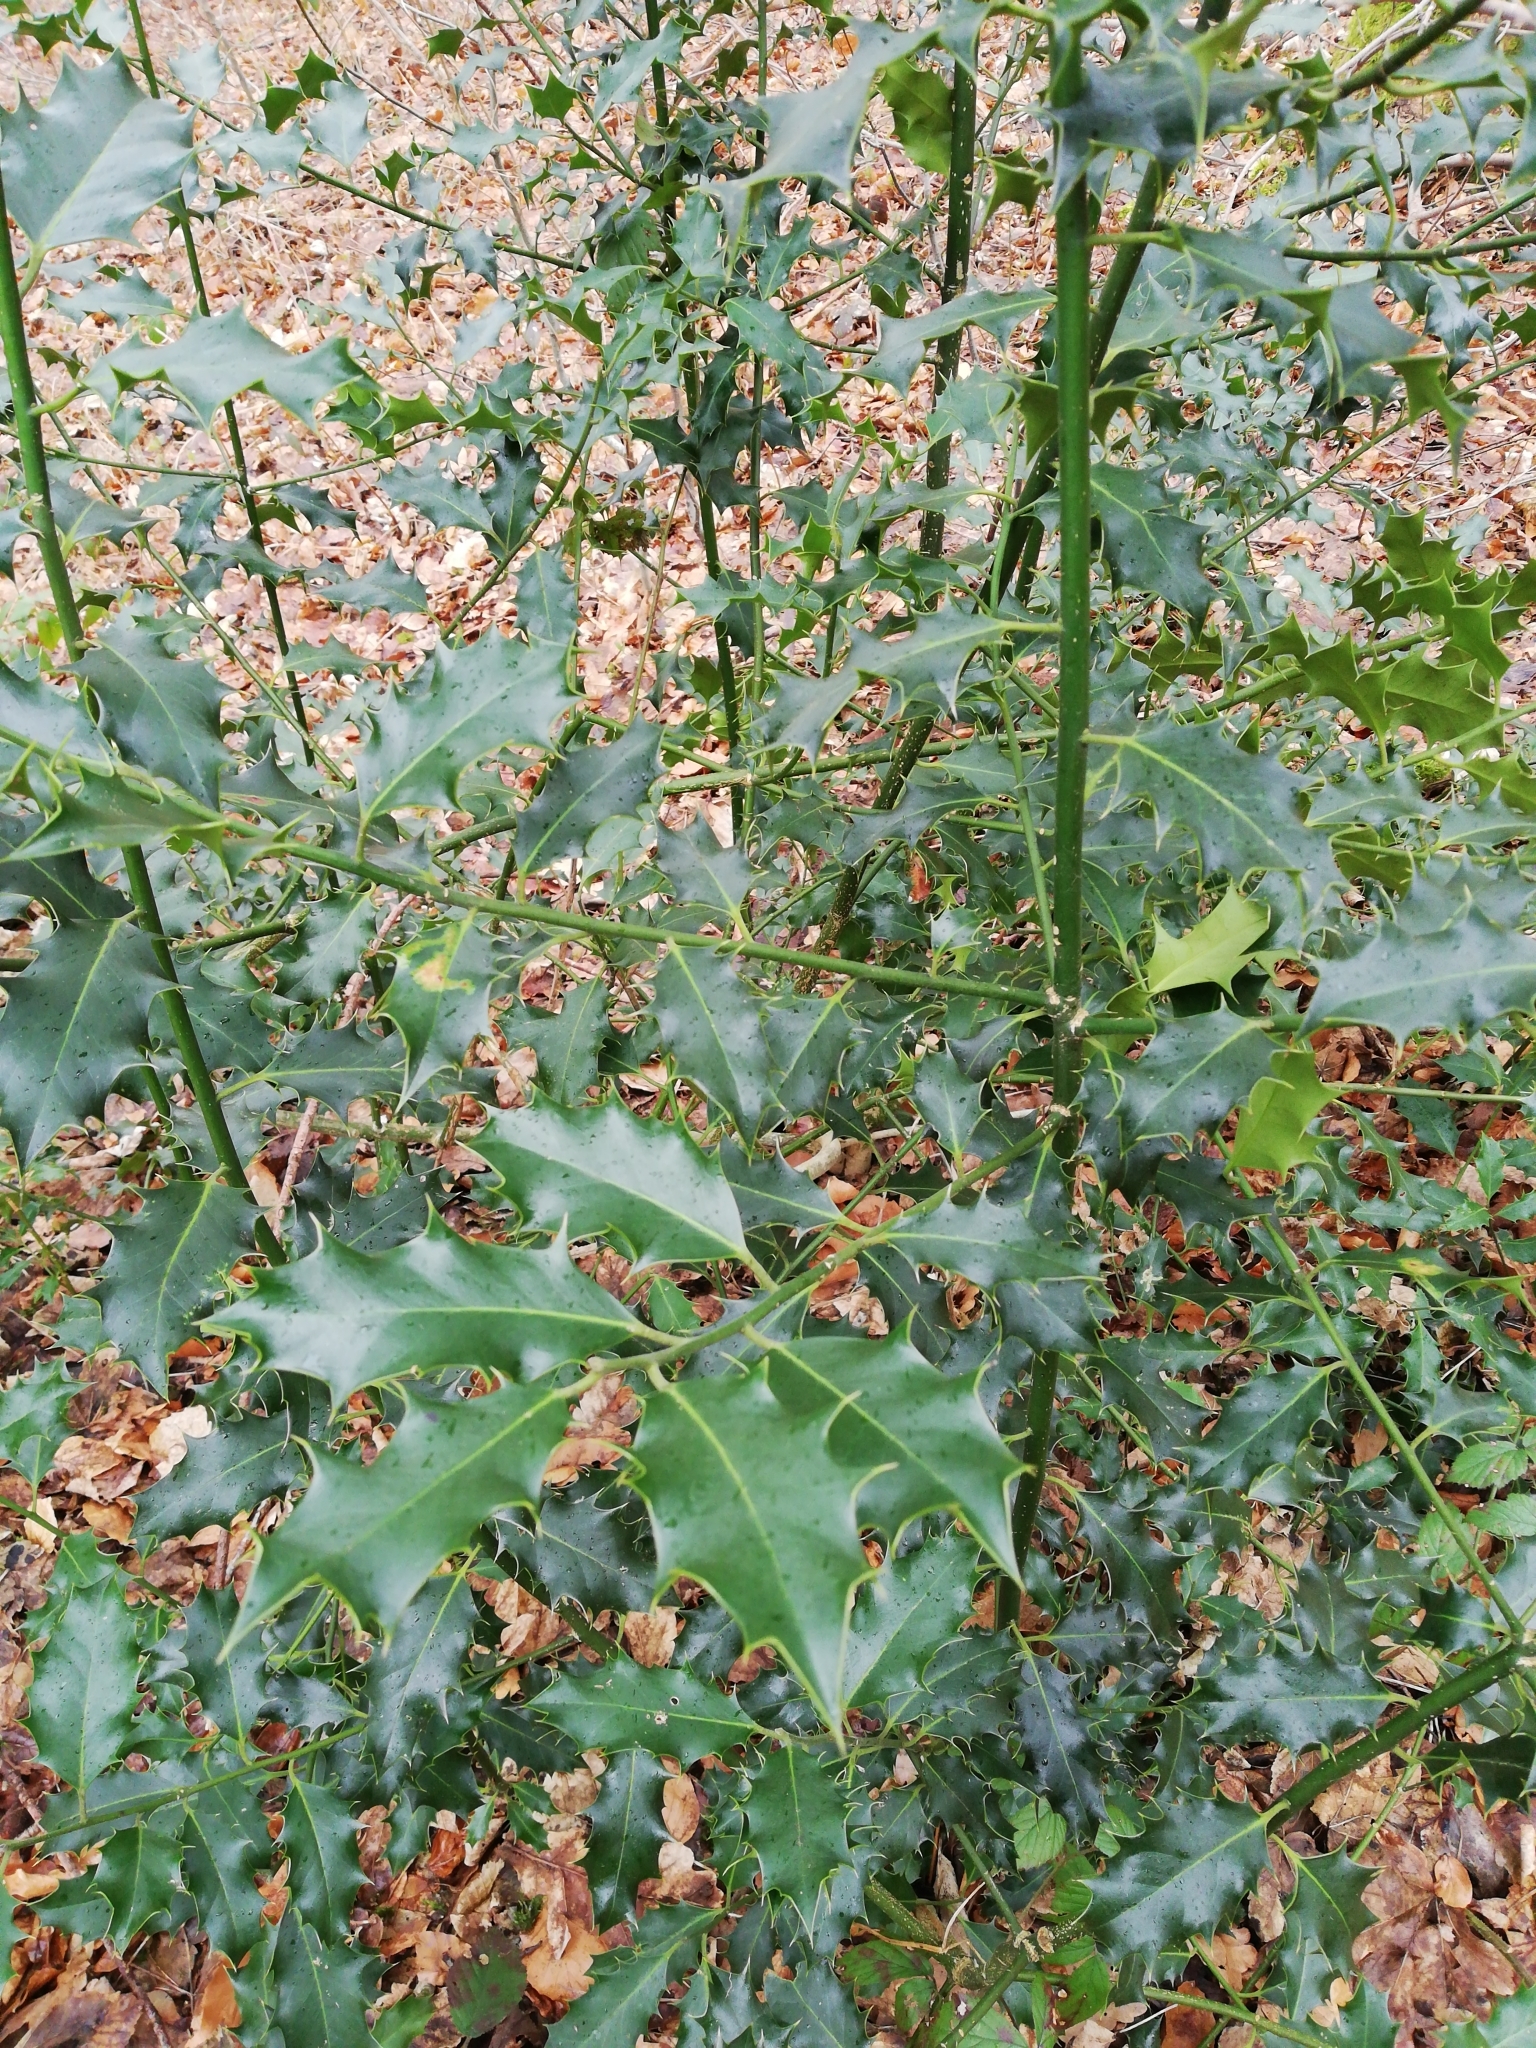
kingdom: Plantae
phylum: Tracheophyta
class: Magnoliopsida
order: Aquifoliales
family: Aquifoliaceae
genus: Ilex
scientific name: Ilex aquifolium
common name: English holly
